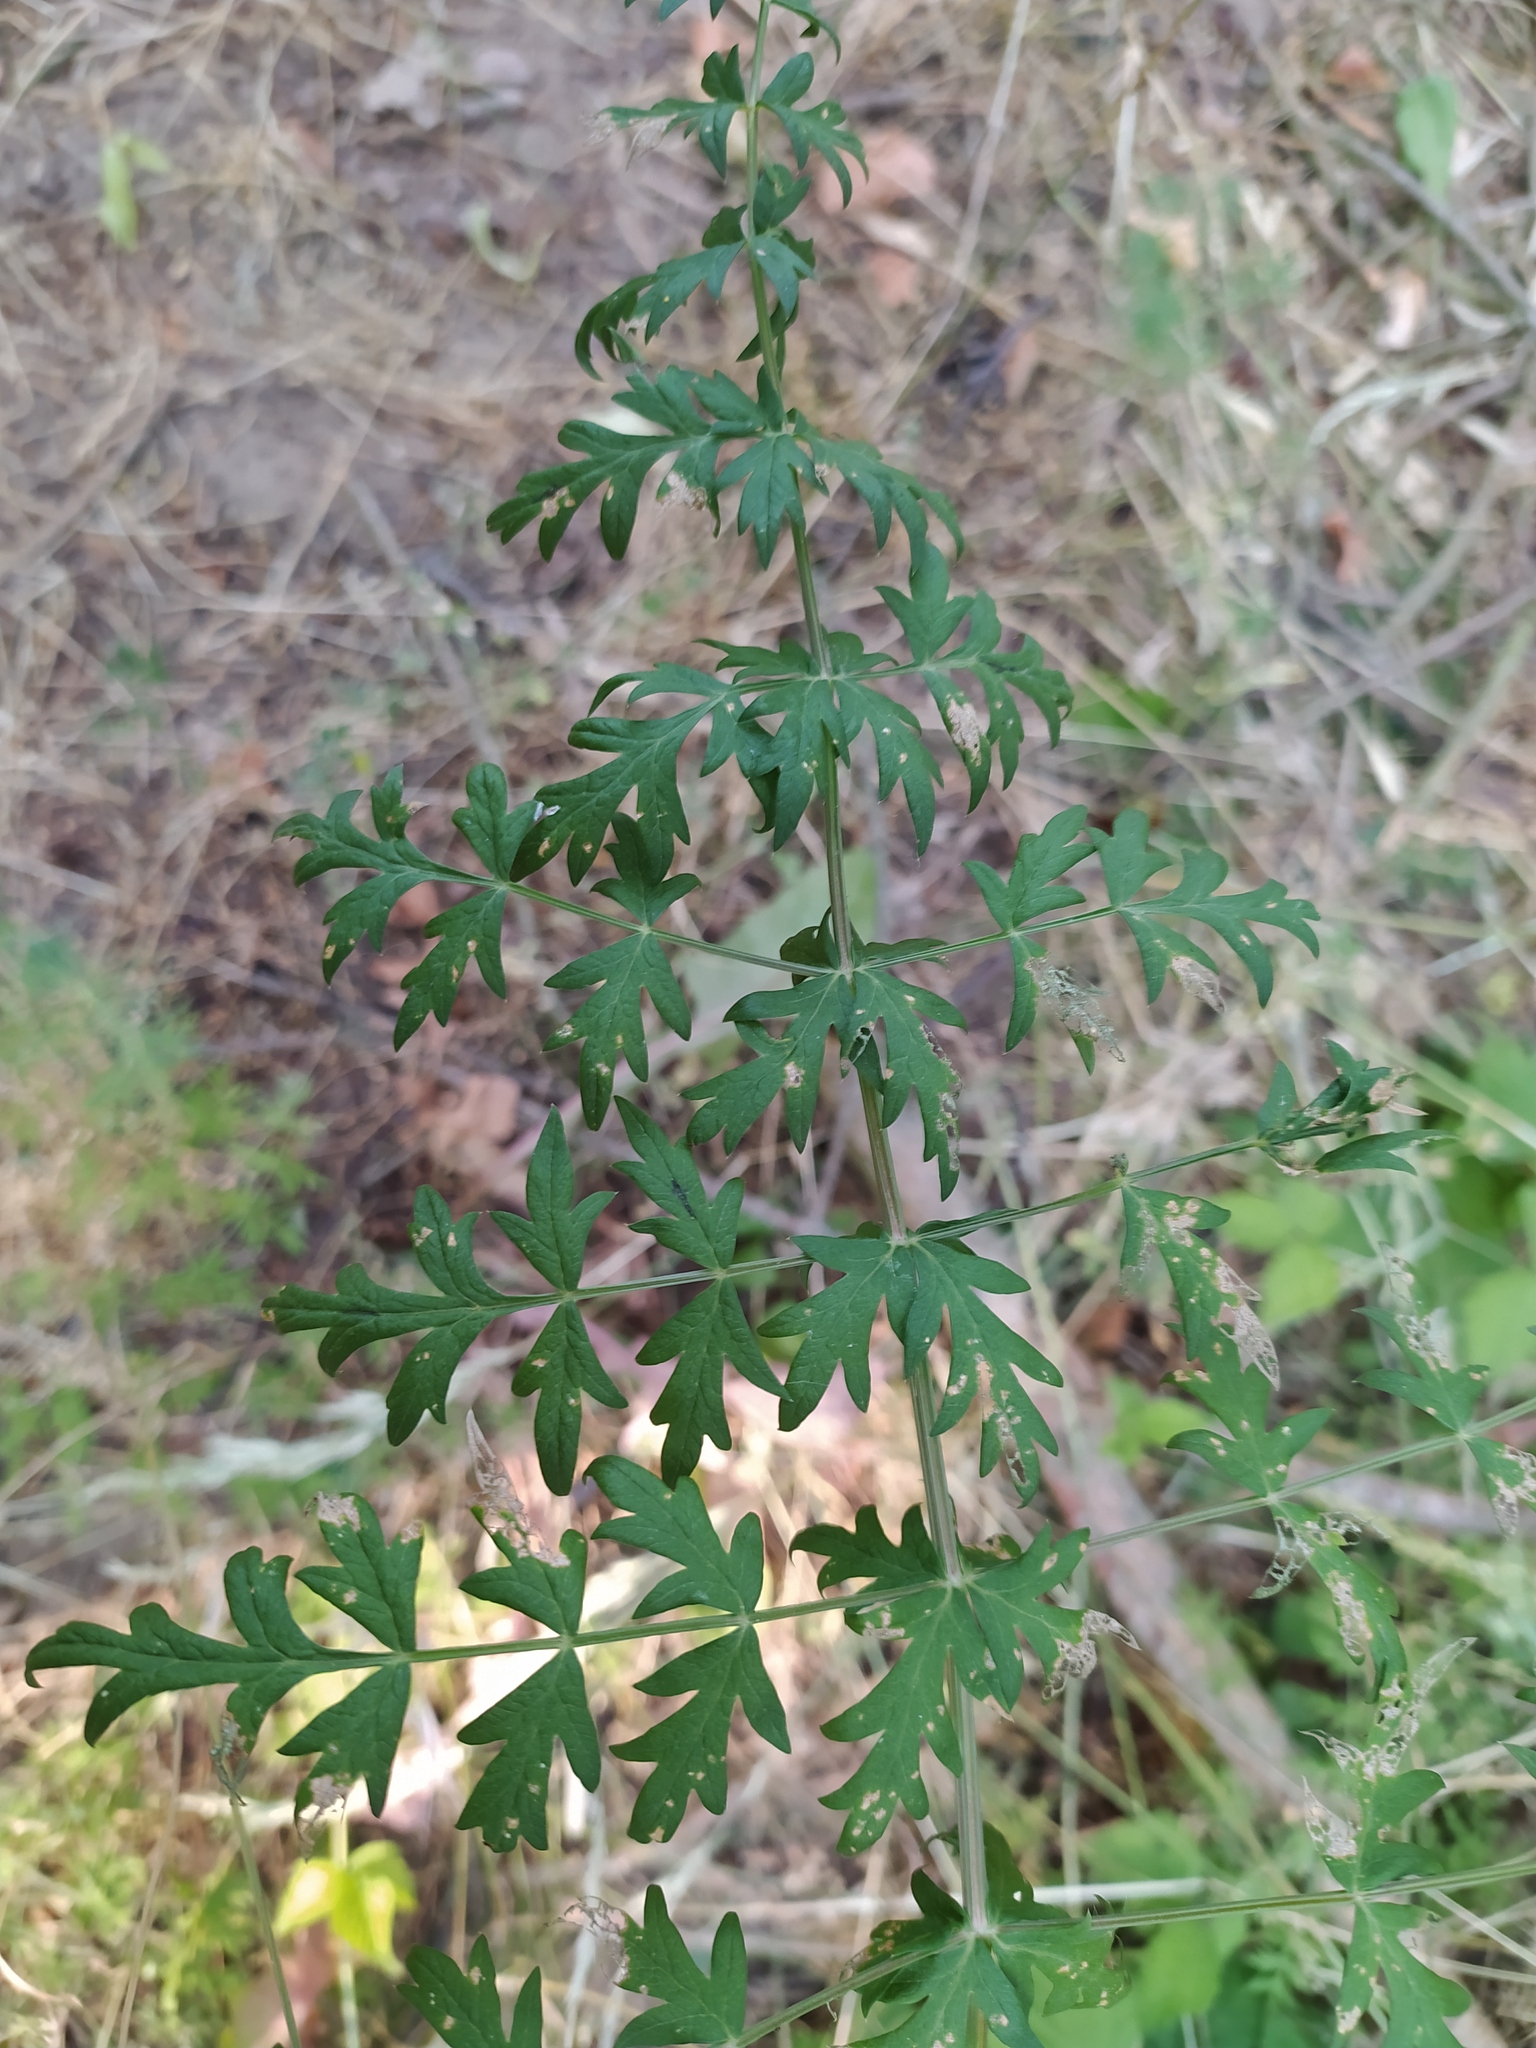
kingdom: Plantae
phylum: Tracheophyta
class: Magnoliopsida
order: Apiales
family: Apiaceae
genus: Seseli
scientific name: Seseli libanotis
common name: Mooncarrot
